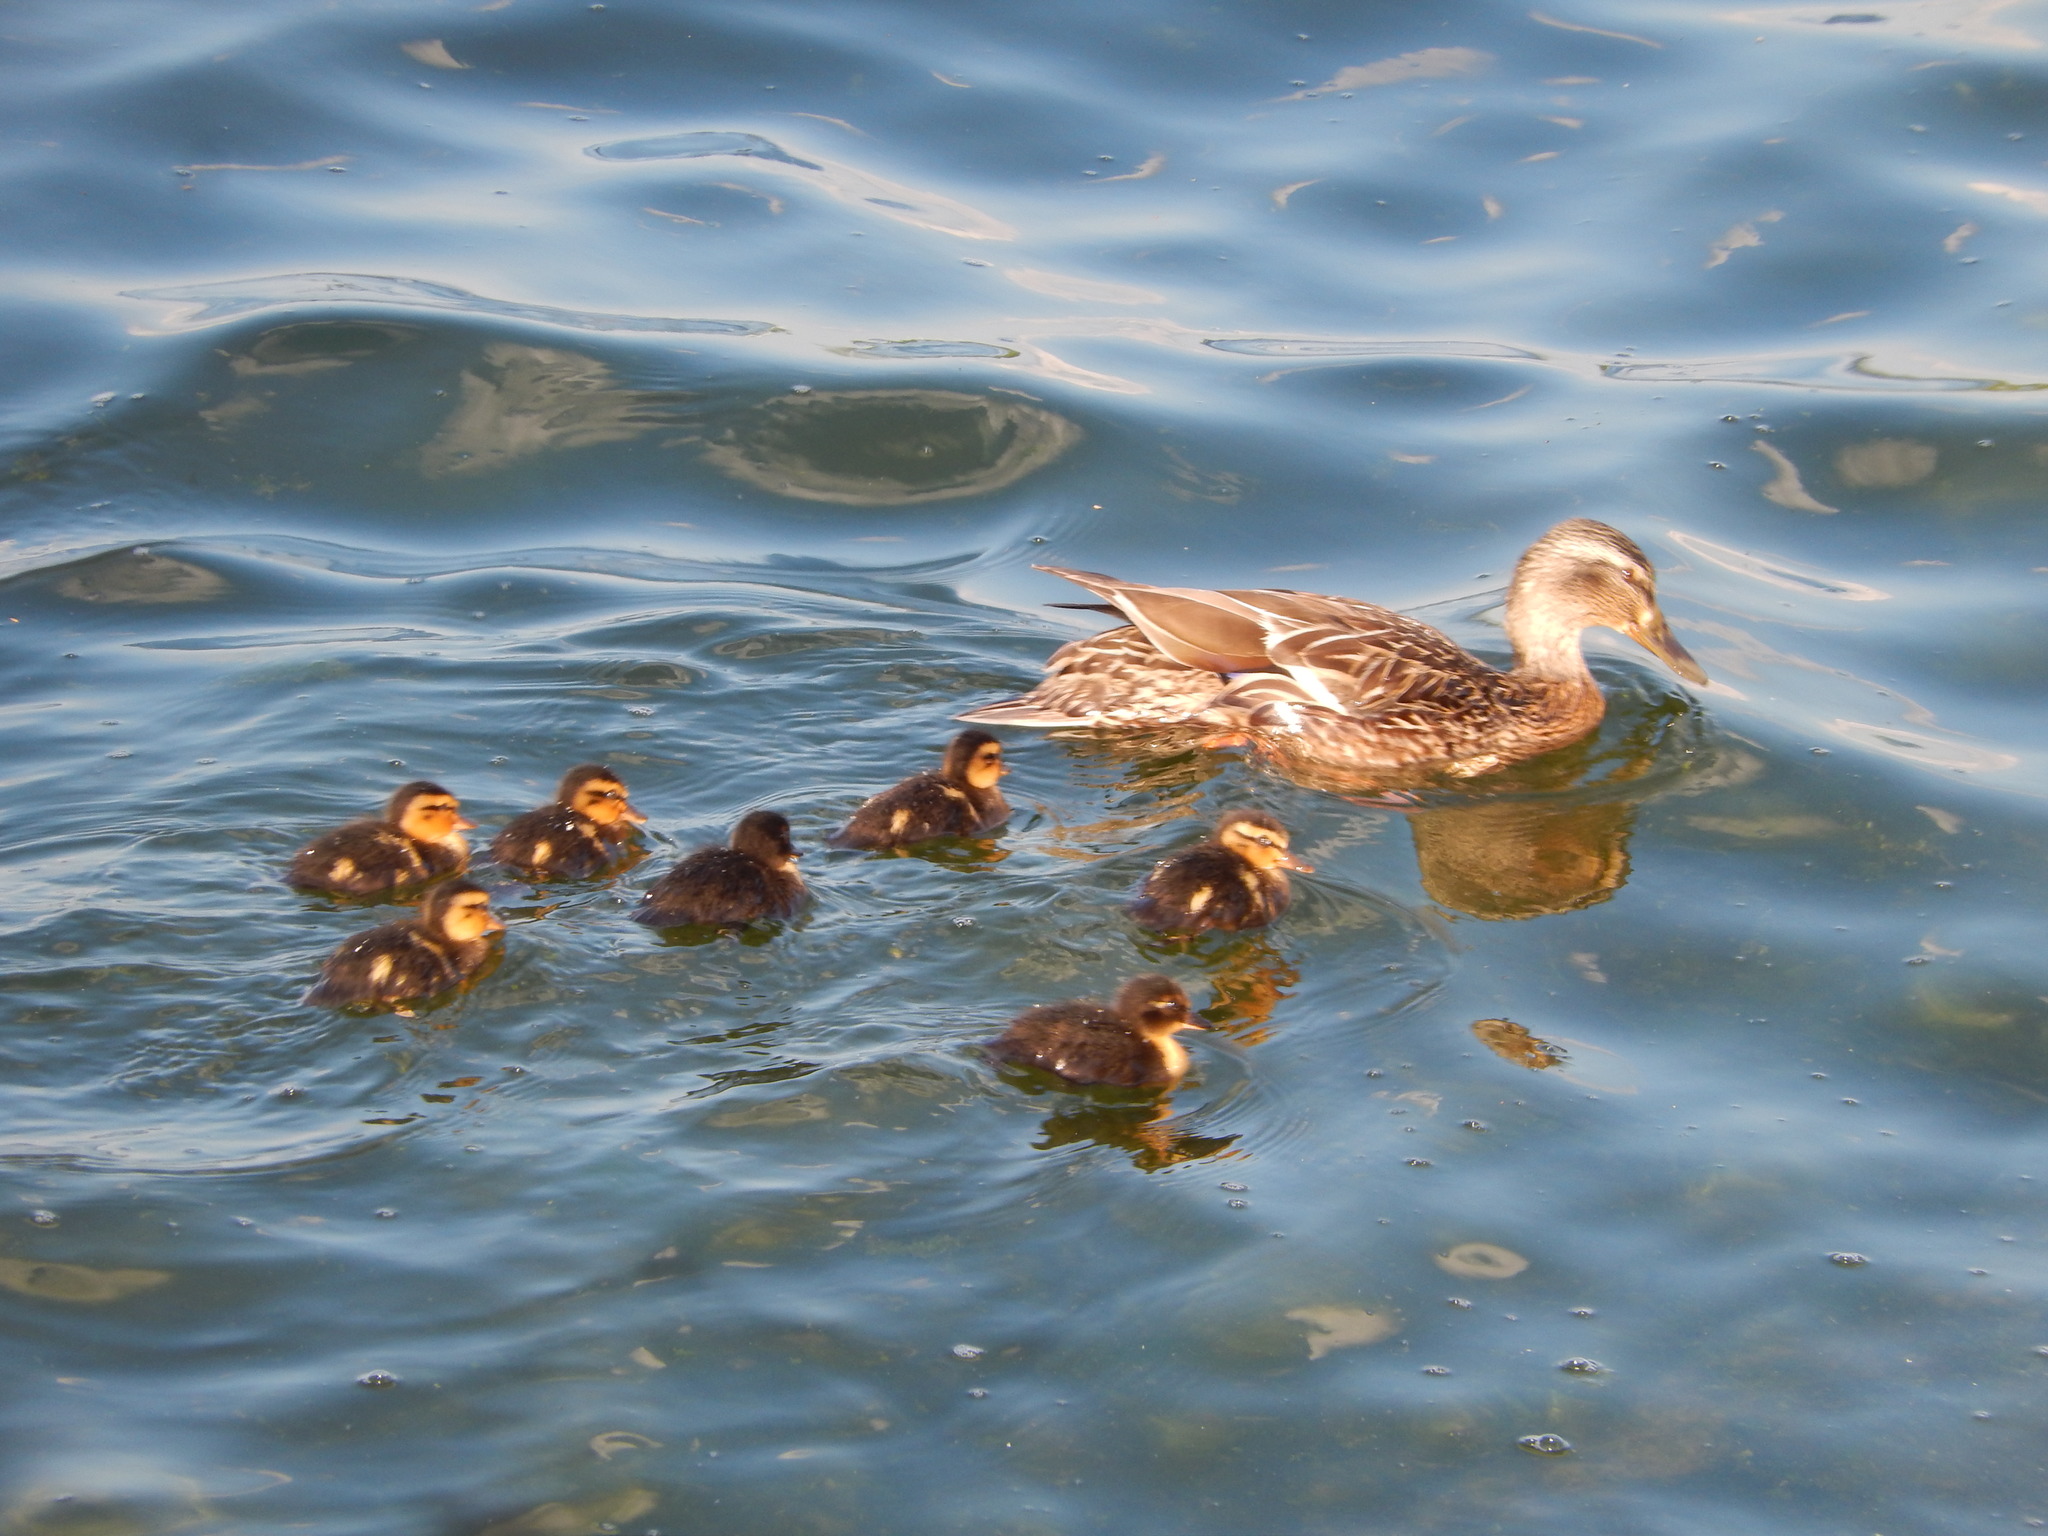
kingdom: Animalia
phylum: Chordata
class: Aves
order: Anseriformes
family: Anatidae
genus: Anas
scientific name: Anas platyrhynchos
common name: Mallard
